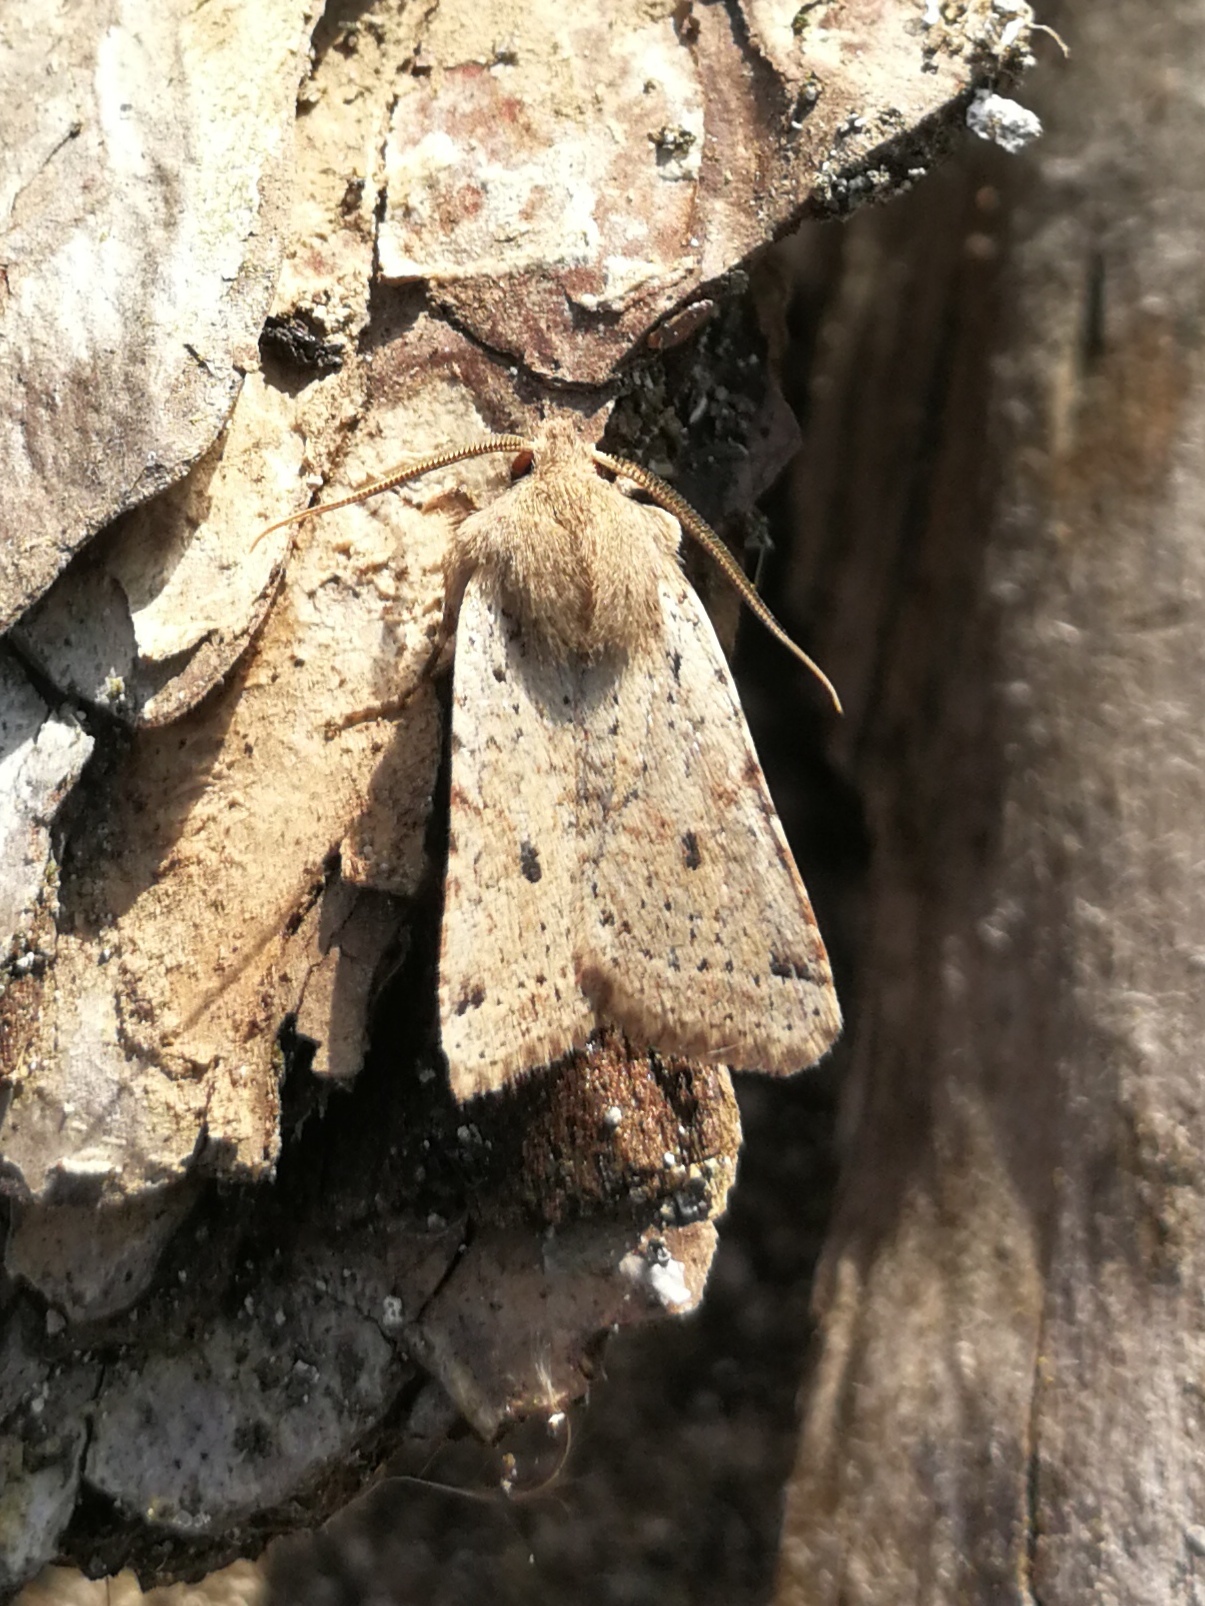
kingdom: Animalia
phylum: Arthropoda
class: Insecta
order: Lepidoptera
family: Noctuidae
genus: Agrochola
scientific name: Agrochola ruticilla
